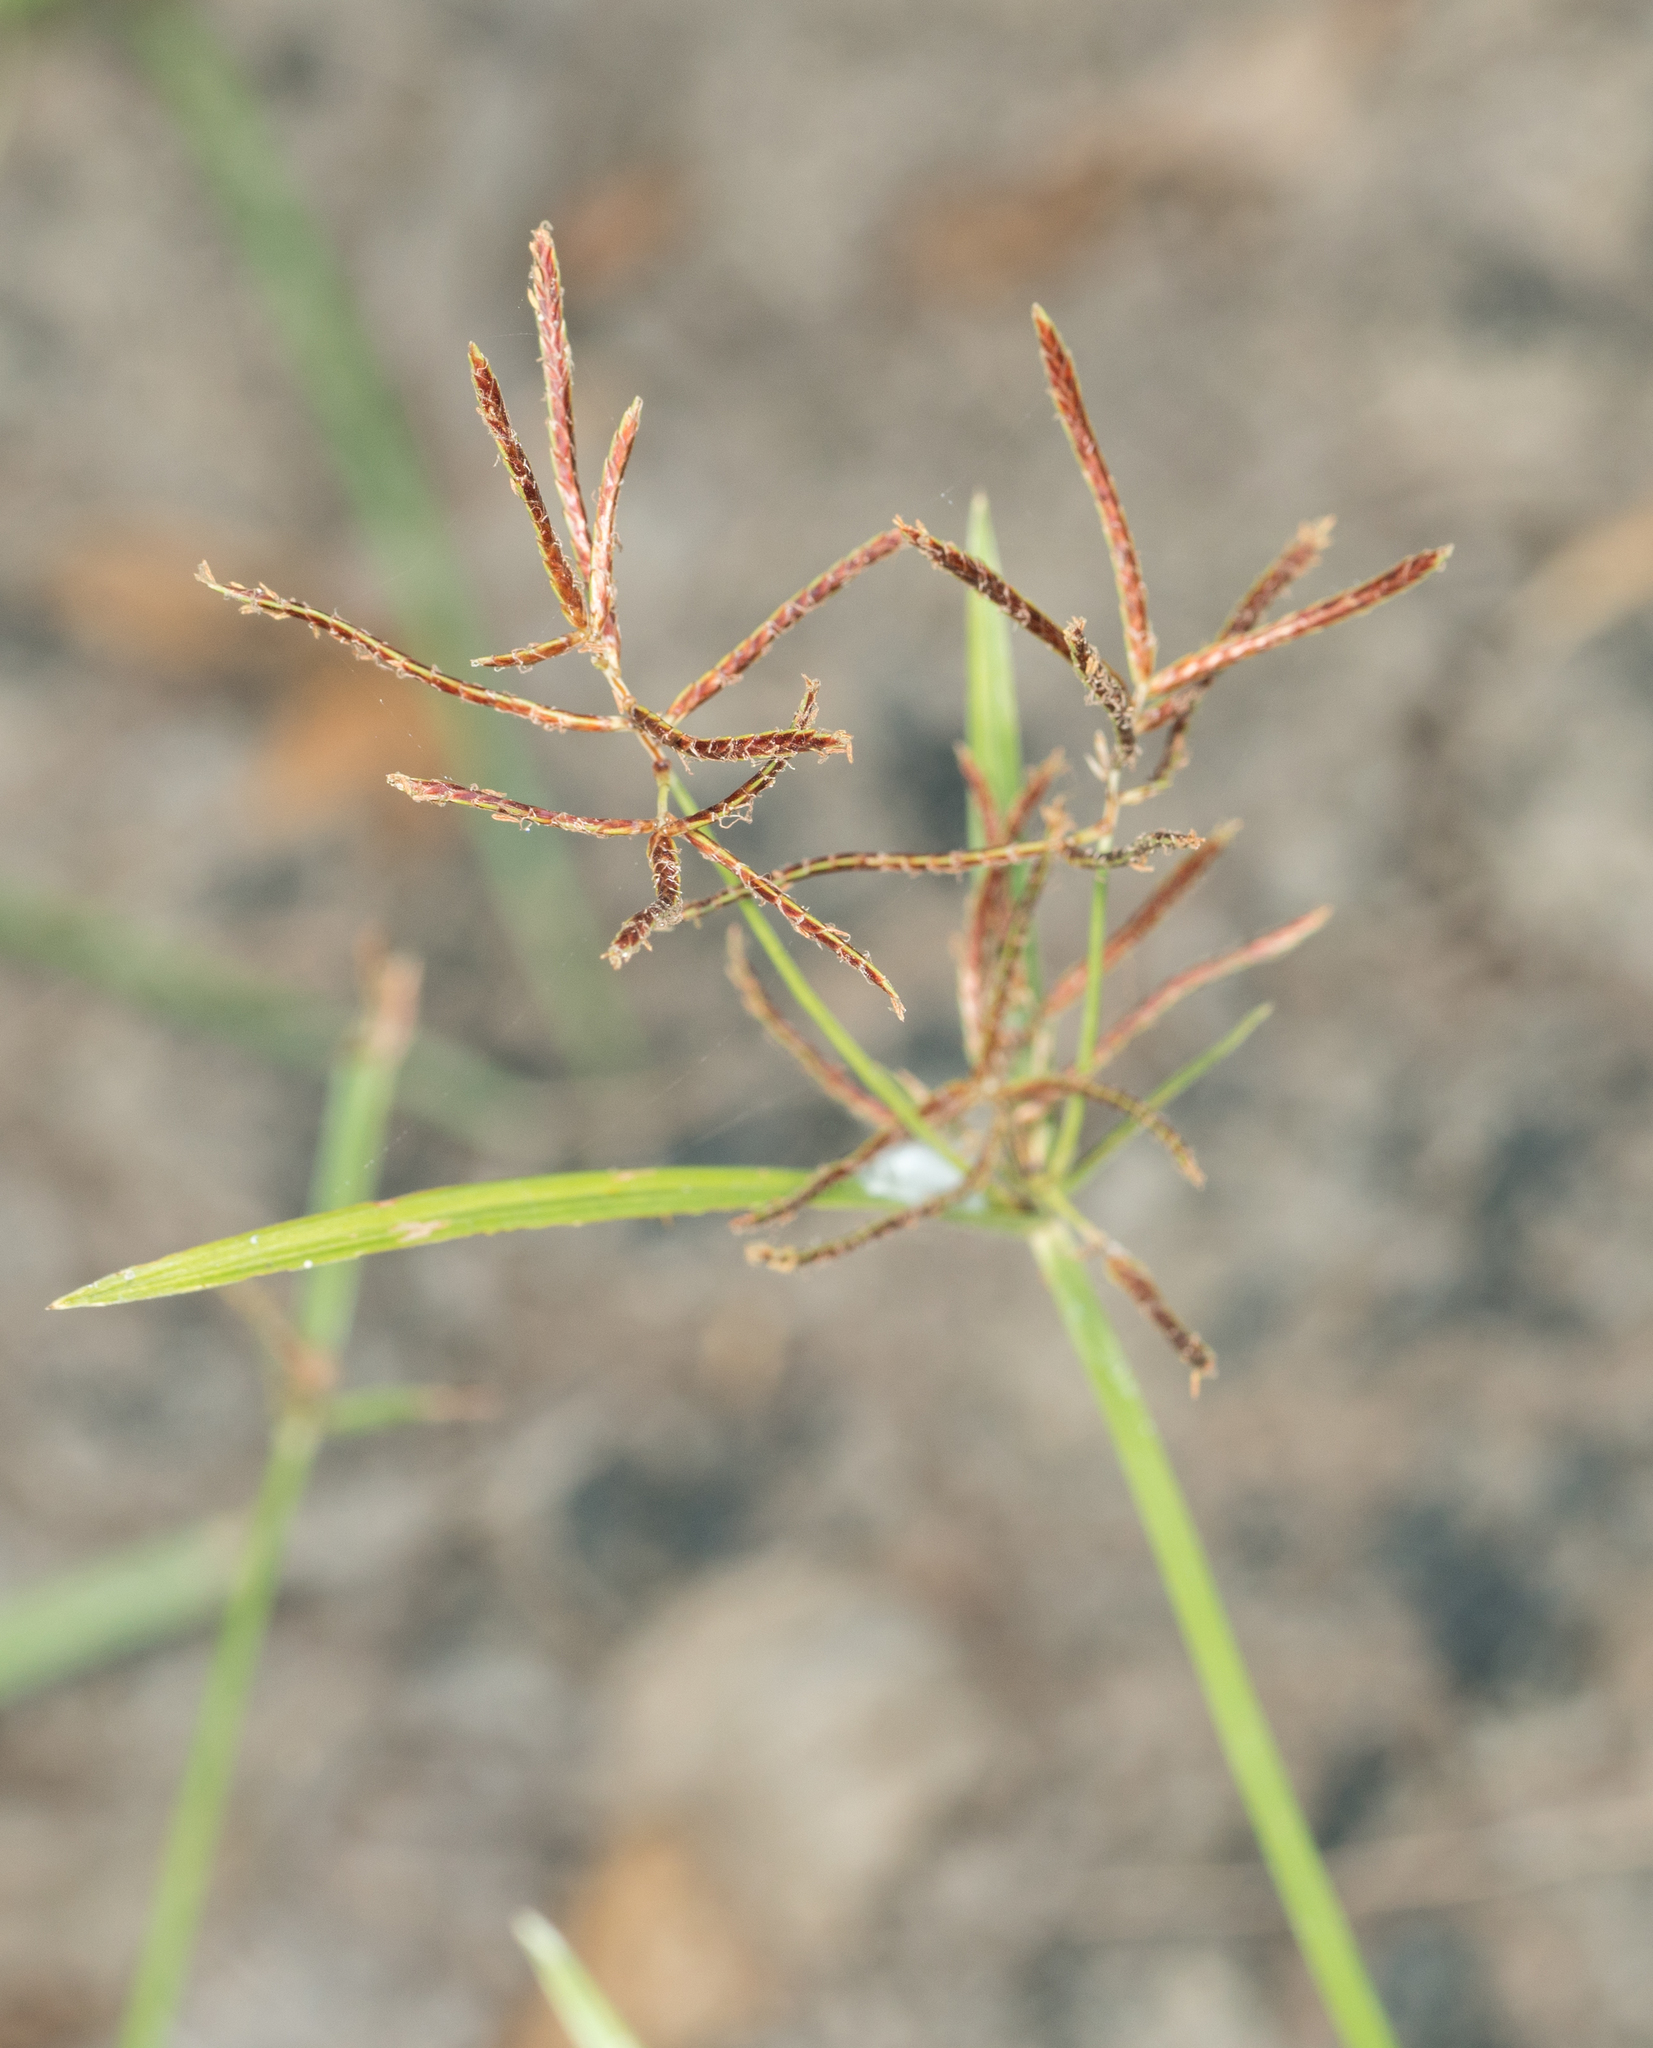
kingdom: Plantae
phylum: Tracheophyta
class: Liliopsida
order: Poales
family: Cyperaceae
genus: Cyperus
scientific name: Cyperus rotundus
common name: Nutgrass
